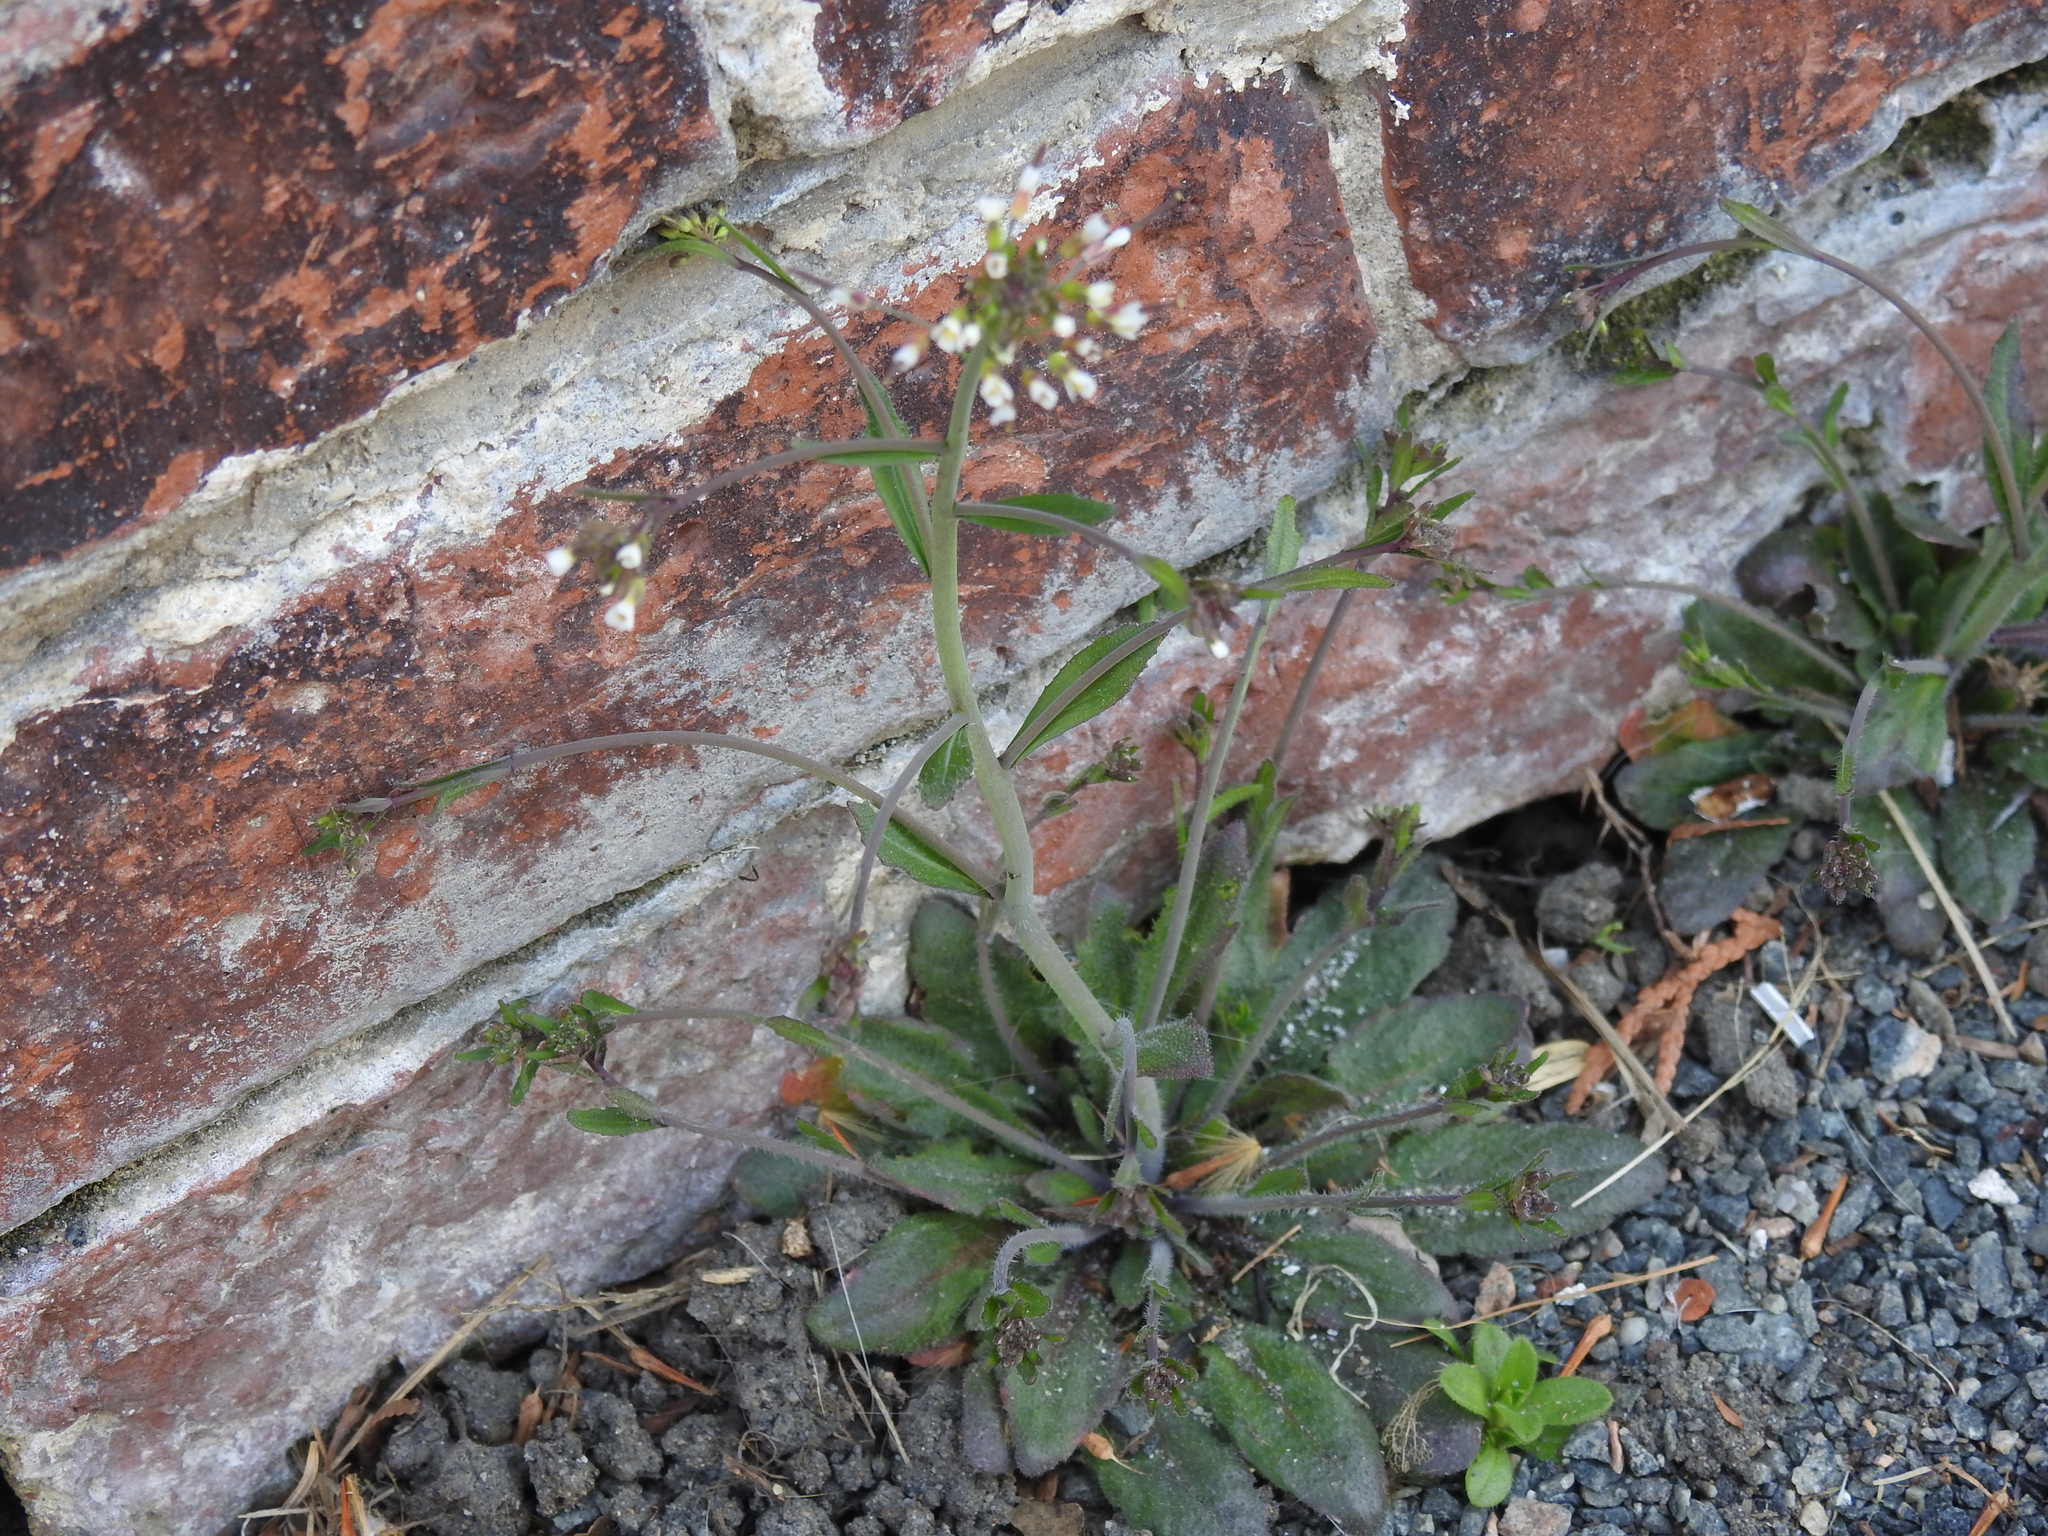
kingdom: Plantae
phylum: Tracheophyta
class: Magnoliopsida
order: Brassicales
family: Brassicaceae
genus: Draba
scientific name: Draba verna
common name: Spring draba
